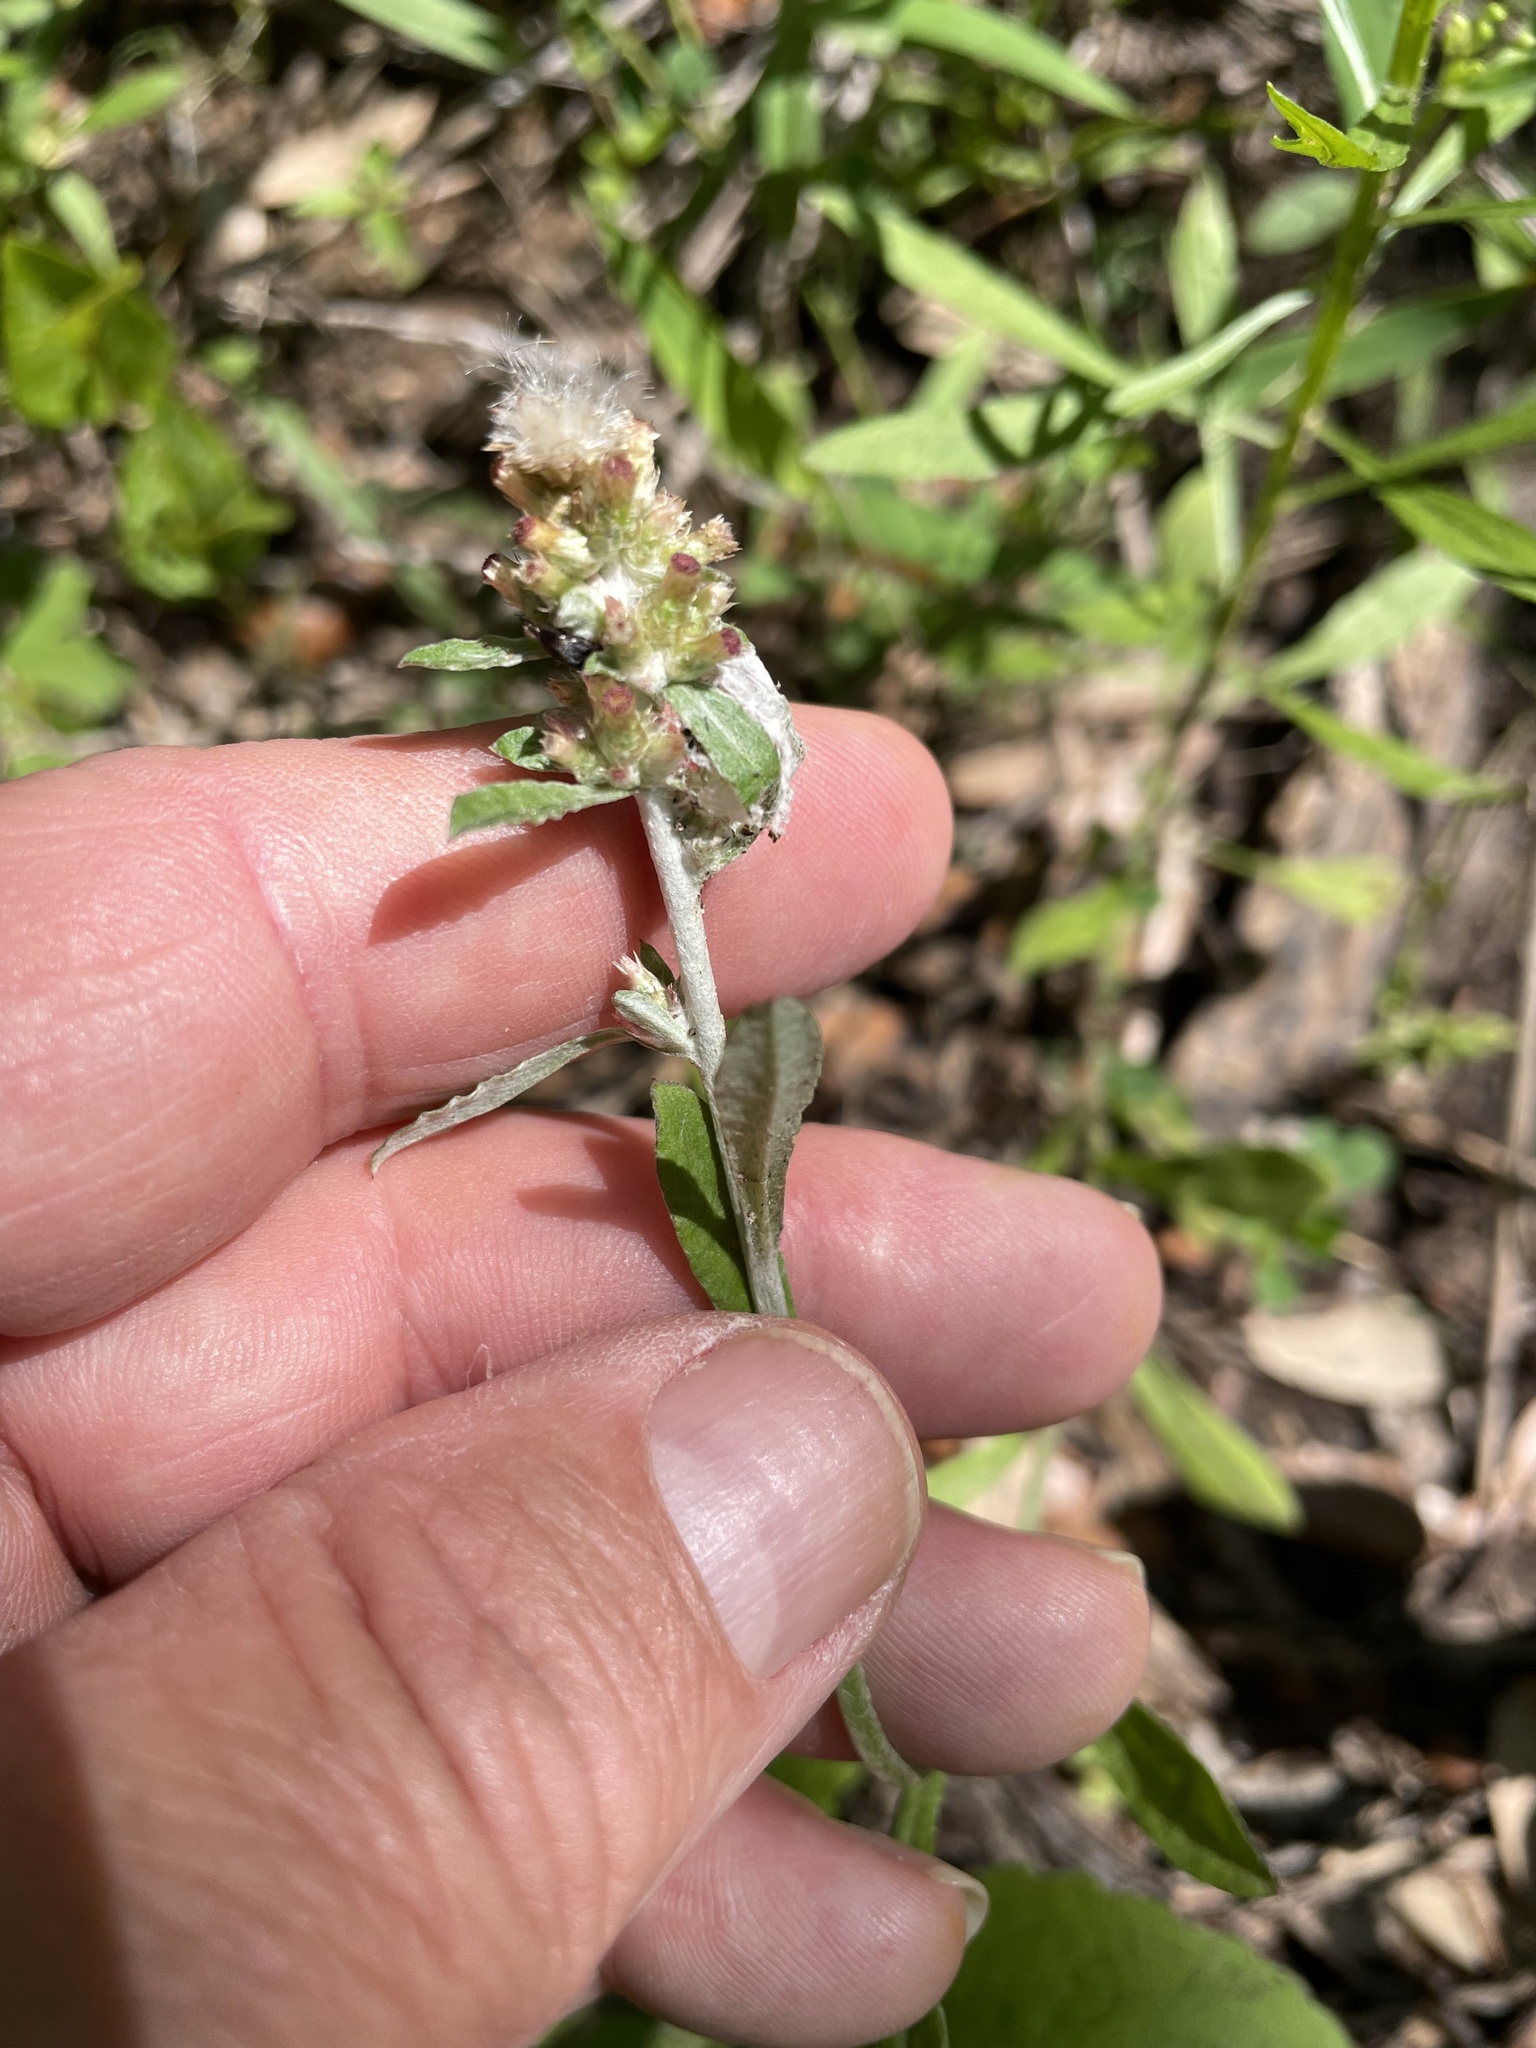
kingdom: Plantae
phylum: Tracheophyta
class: Magnoliopsida
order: Asterales
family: Asteraceae
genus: Gamochaeta
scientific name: Gamochaeta pensylvanica
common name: Pennsylvania everlasting
